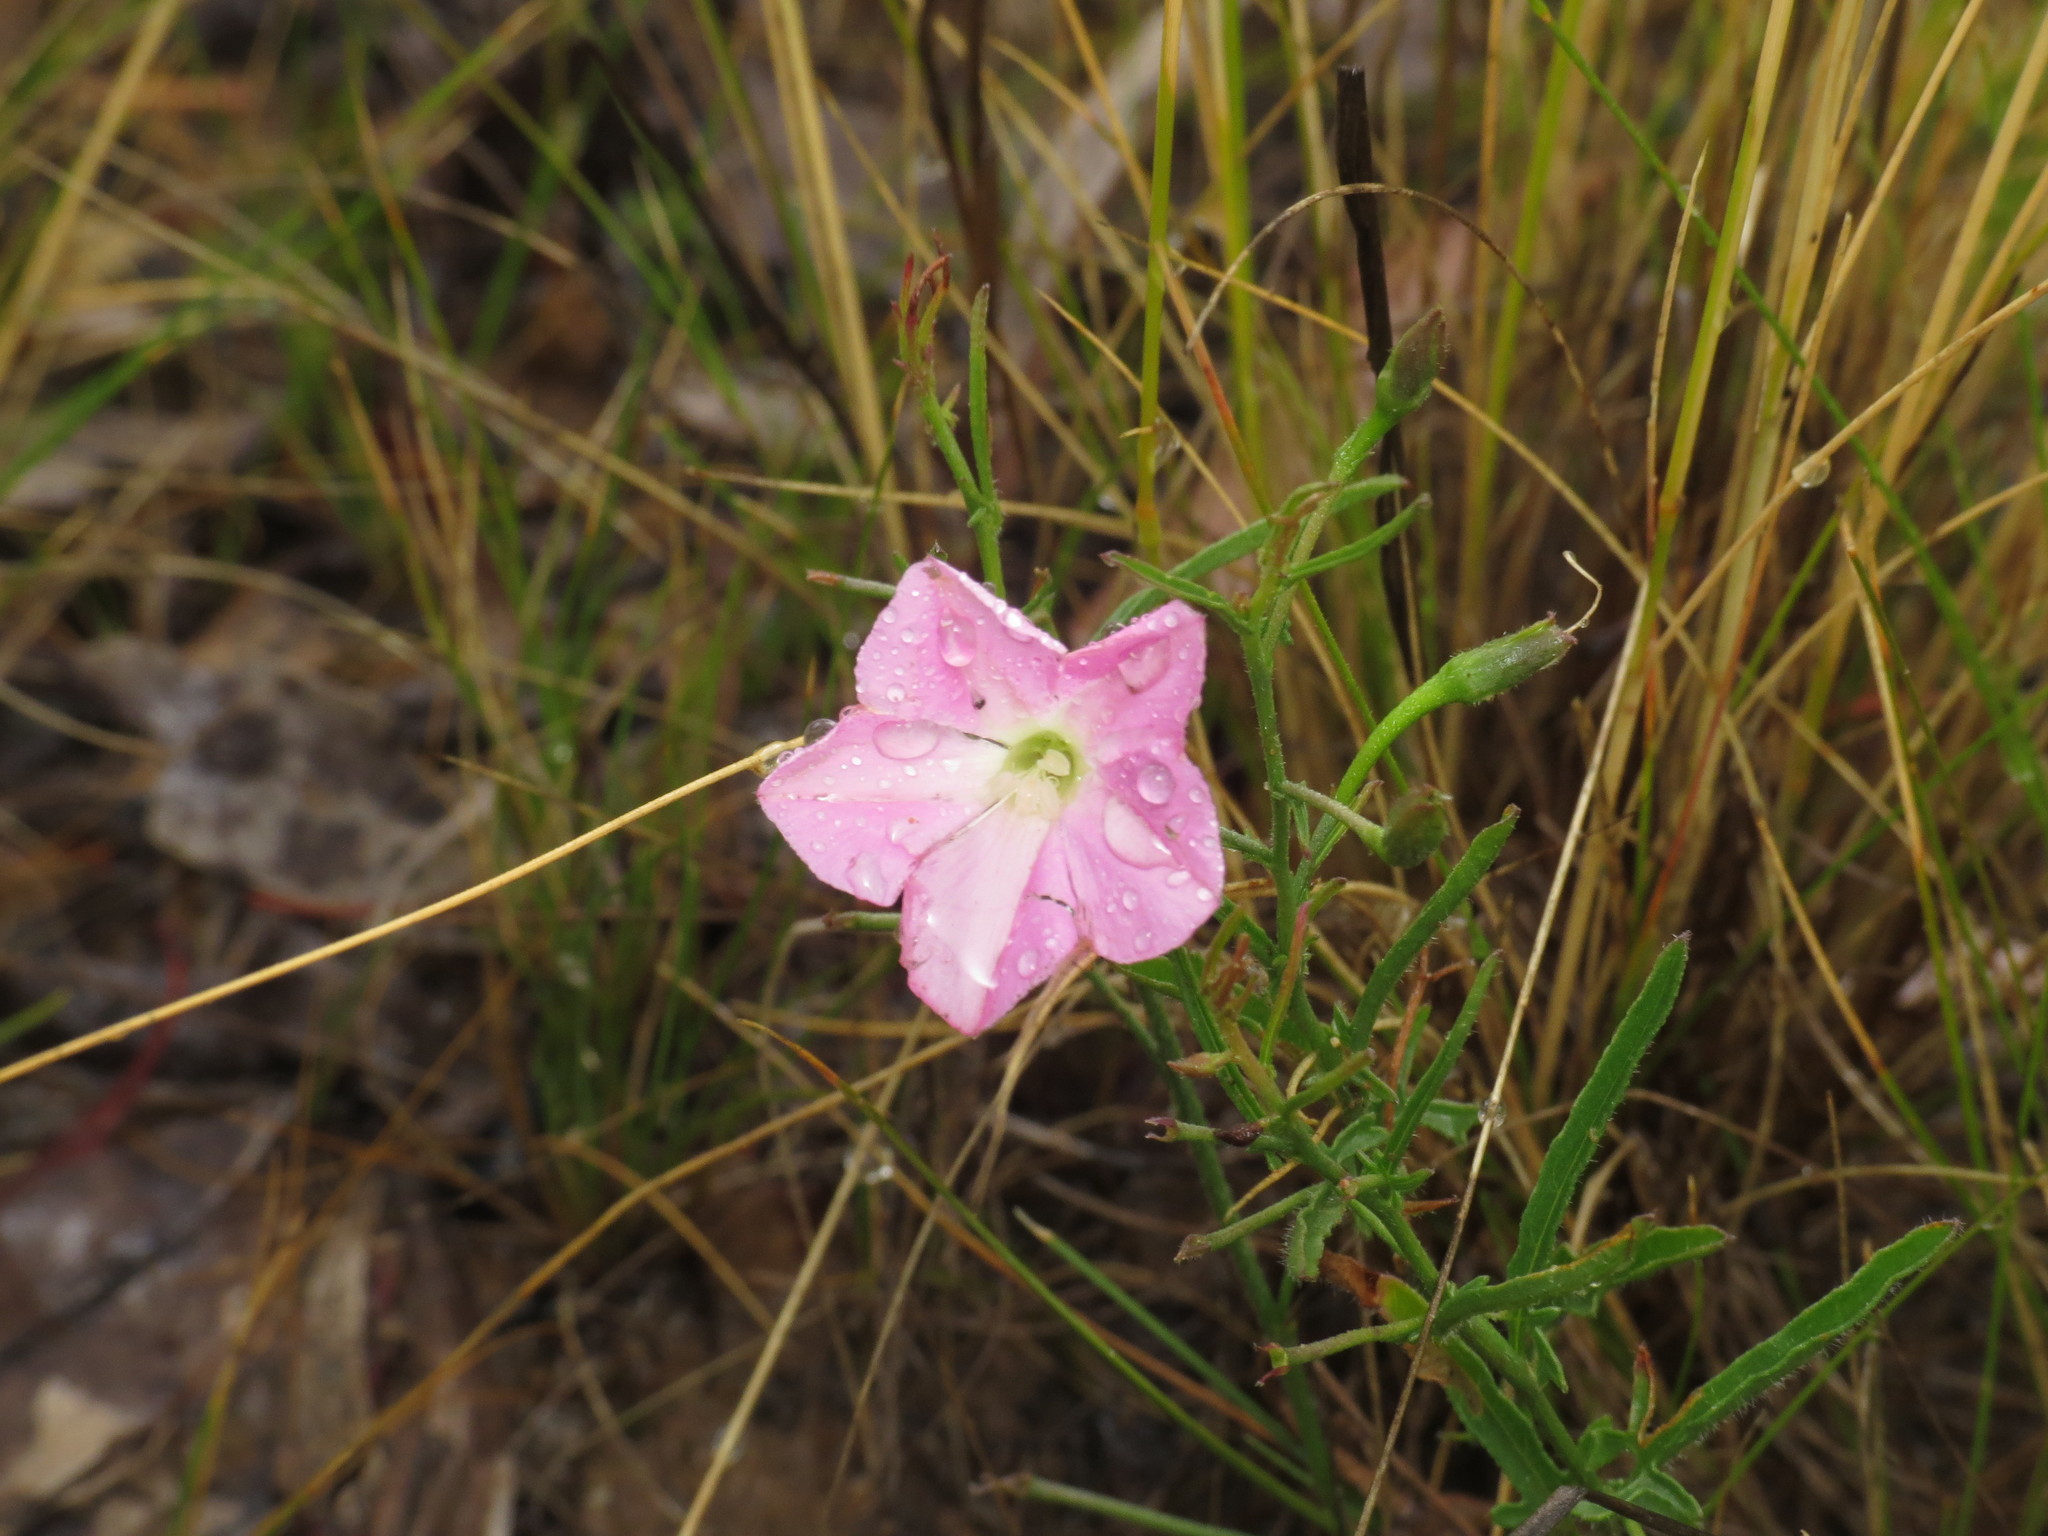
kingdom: Plantae
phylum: Tracheophyta
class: Magnoliopsida
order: Solanales
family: Convolvulaceae
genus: Convolvulus
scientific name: Convolvulus erubescens
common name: Australian bindweed
